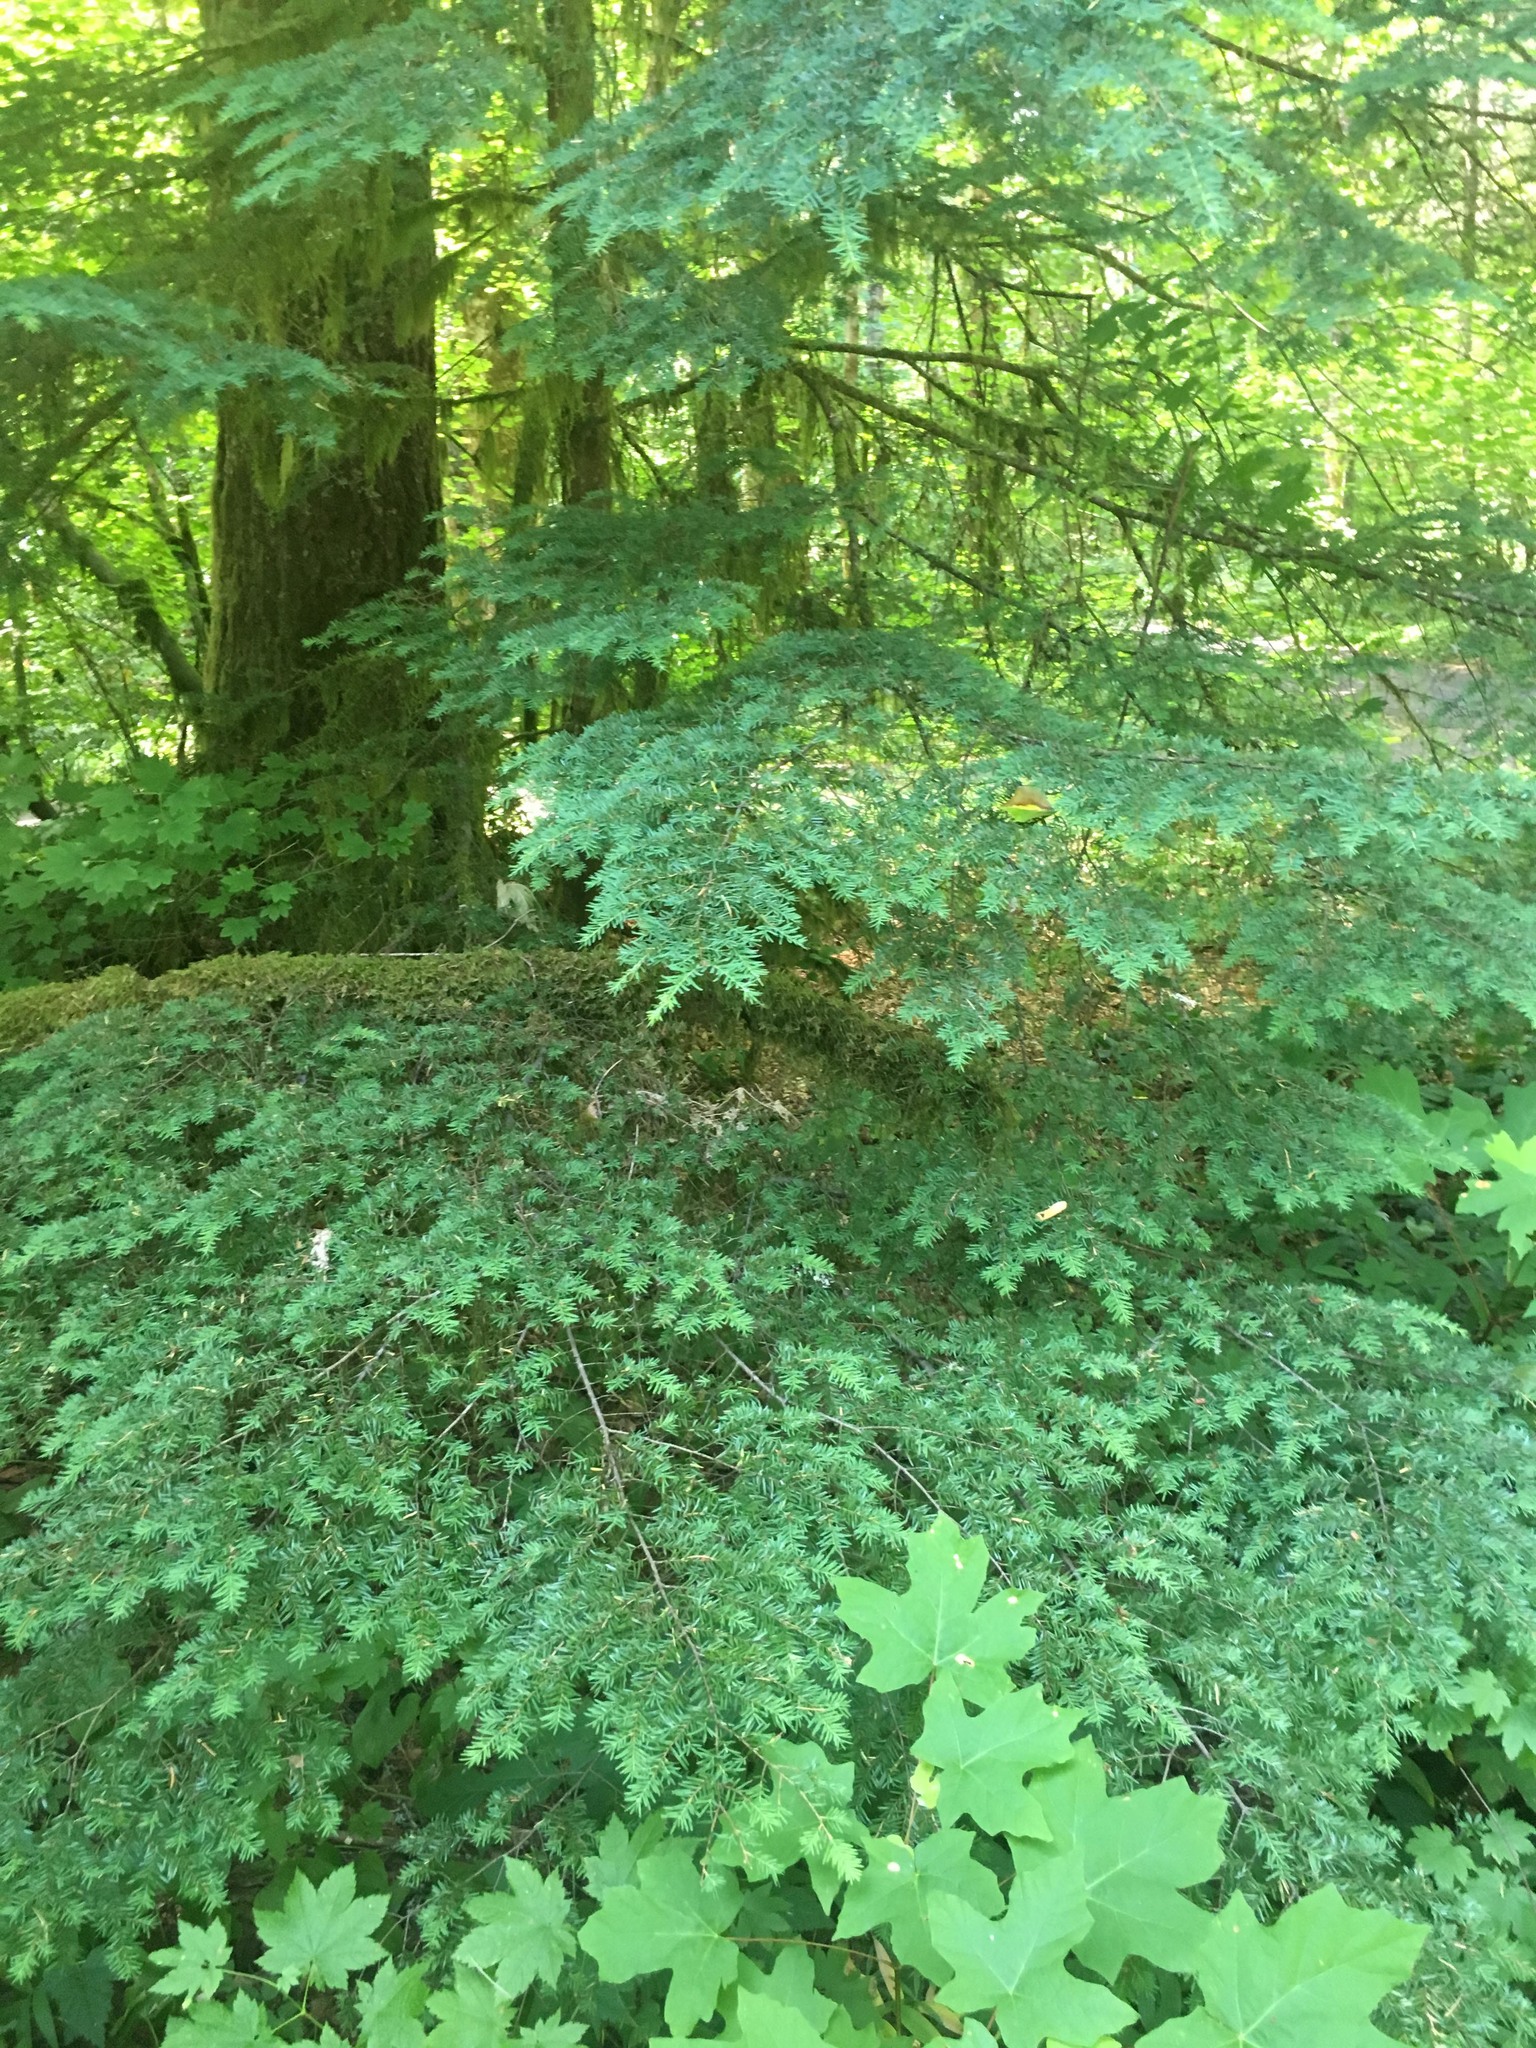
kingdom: Plantae
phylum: Tracheophyta
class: Pinopsida
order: Pinales
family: Pinaceae
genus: Tsuga
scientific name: Tsuga heterophylla
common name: Western hemlock
